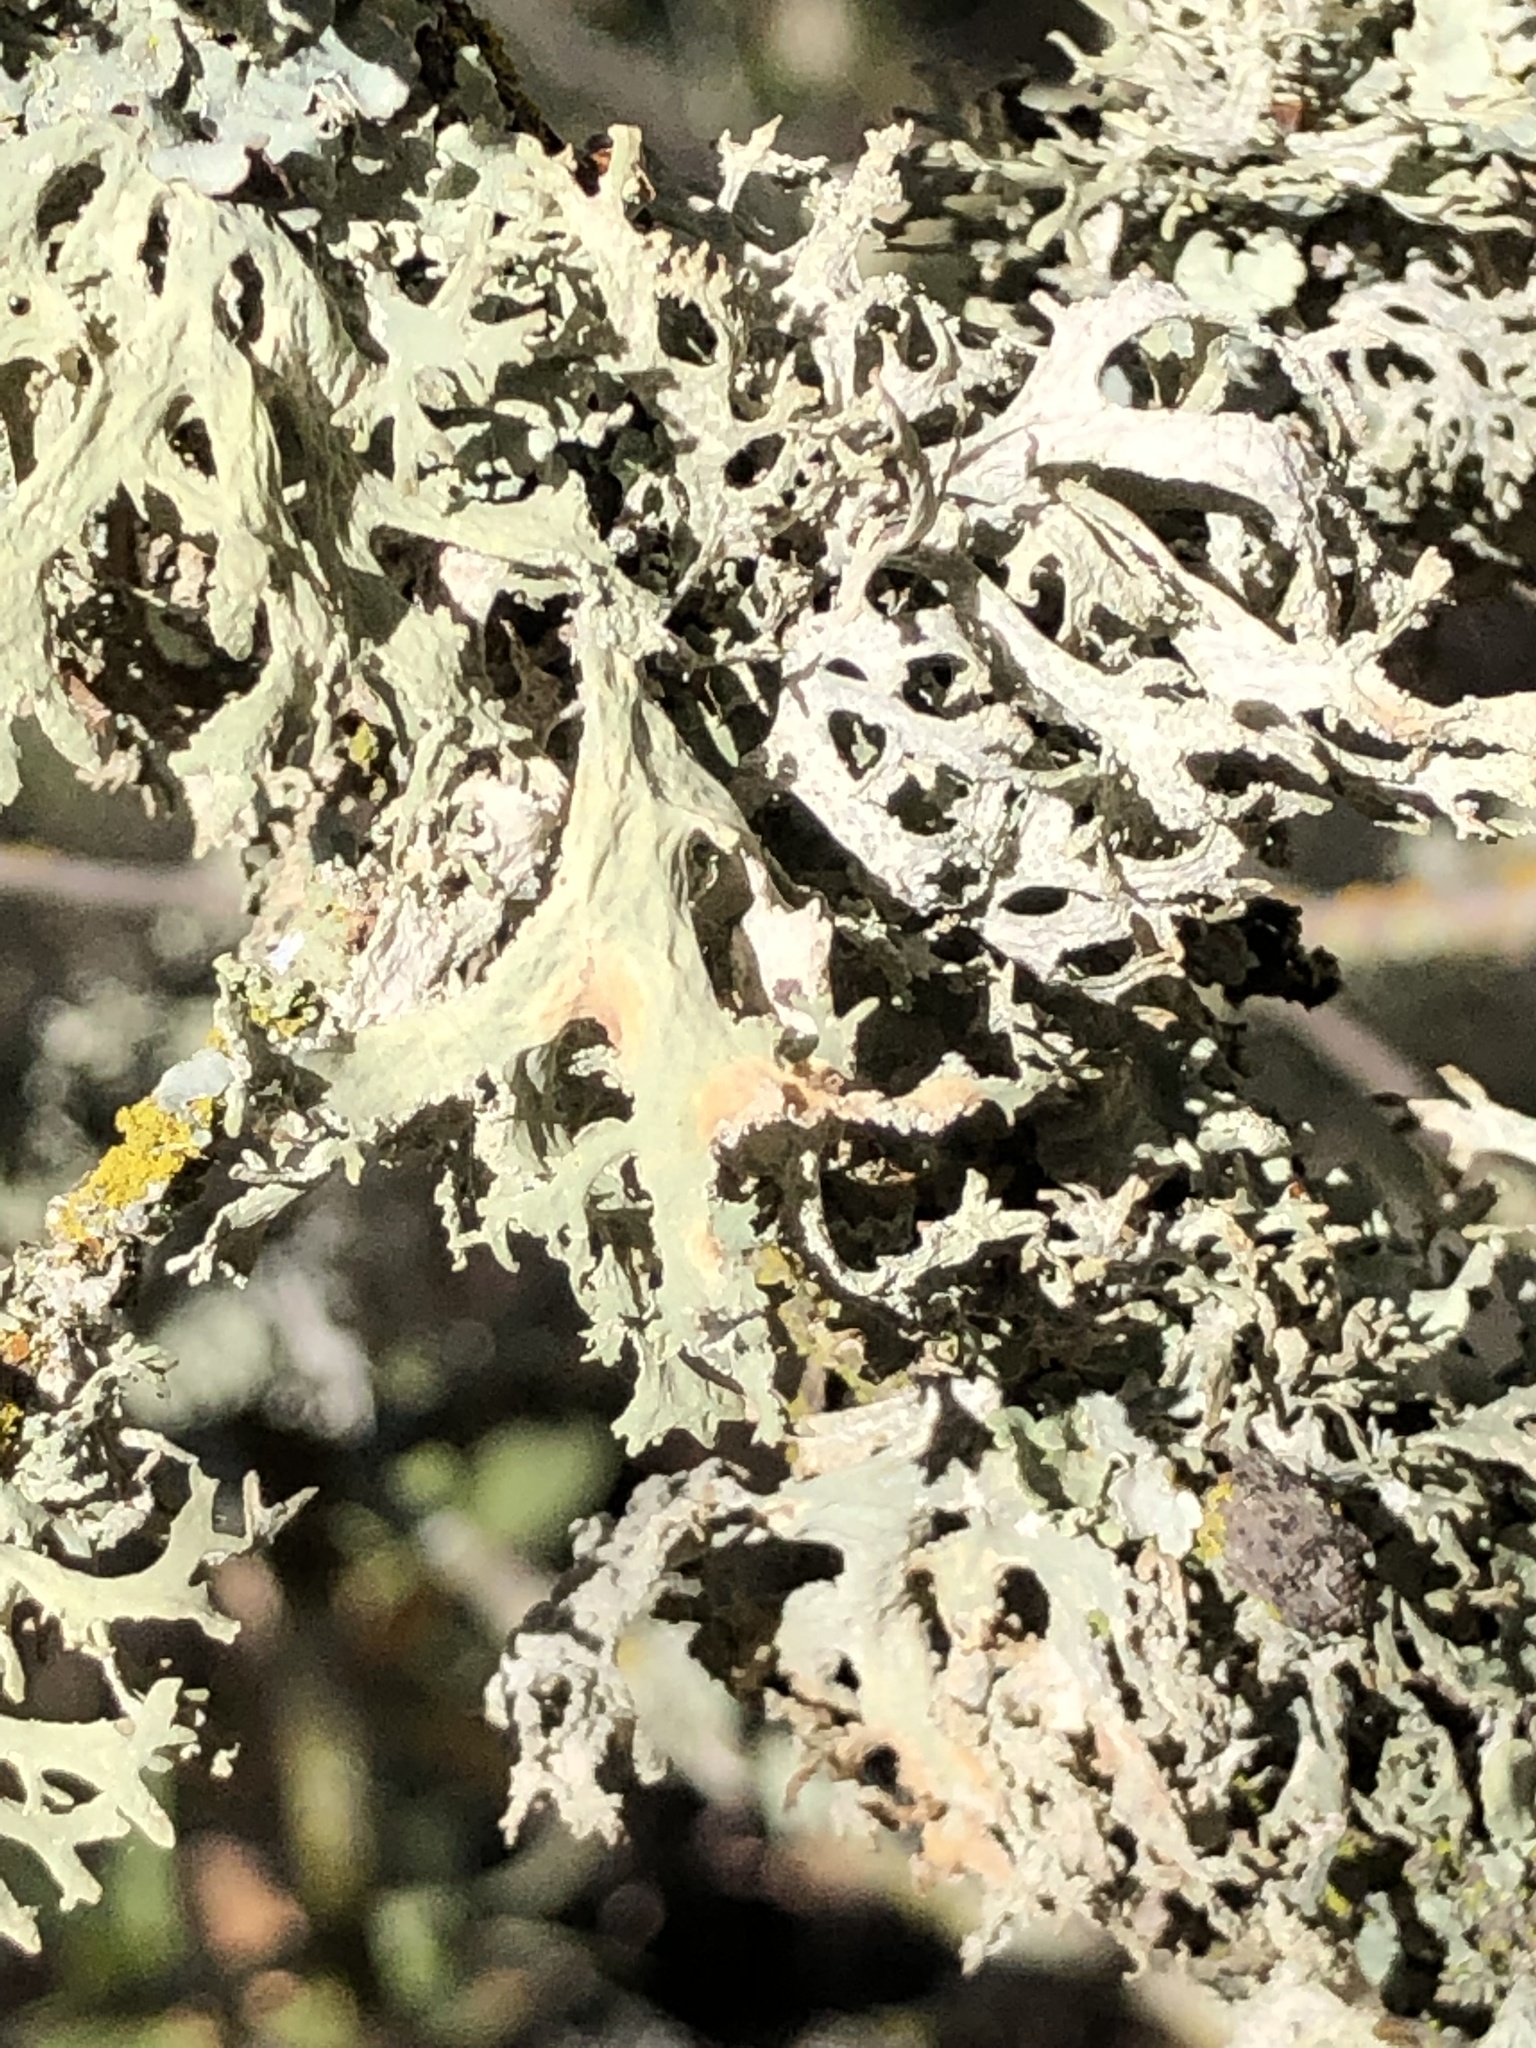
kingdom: Fungi
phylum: Ascomycota
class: Lecanoromycetes
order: Lecanorales
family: Parmeliaceae
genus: Evernia
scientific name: Evernia prunastri
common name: Oak moss
